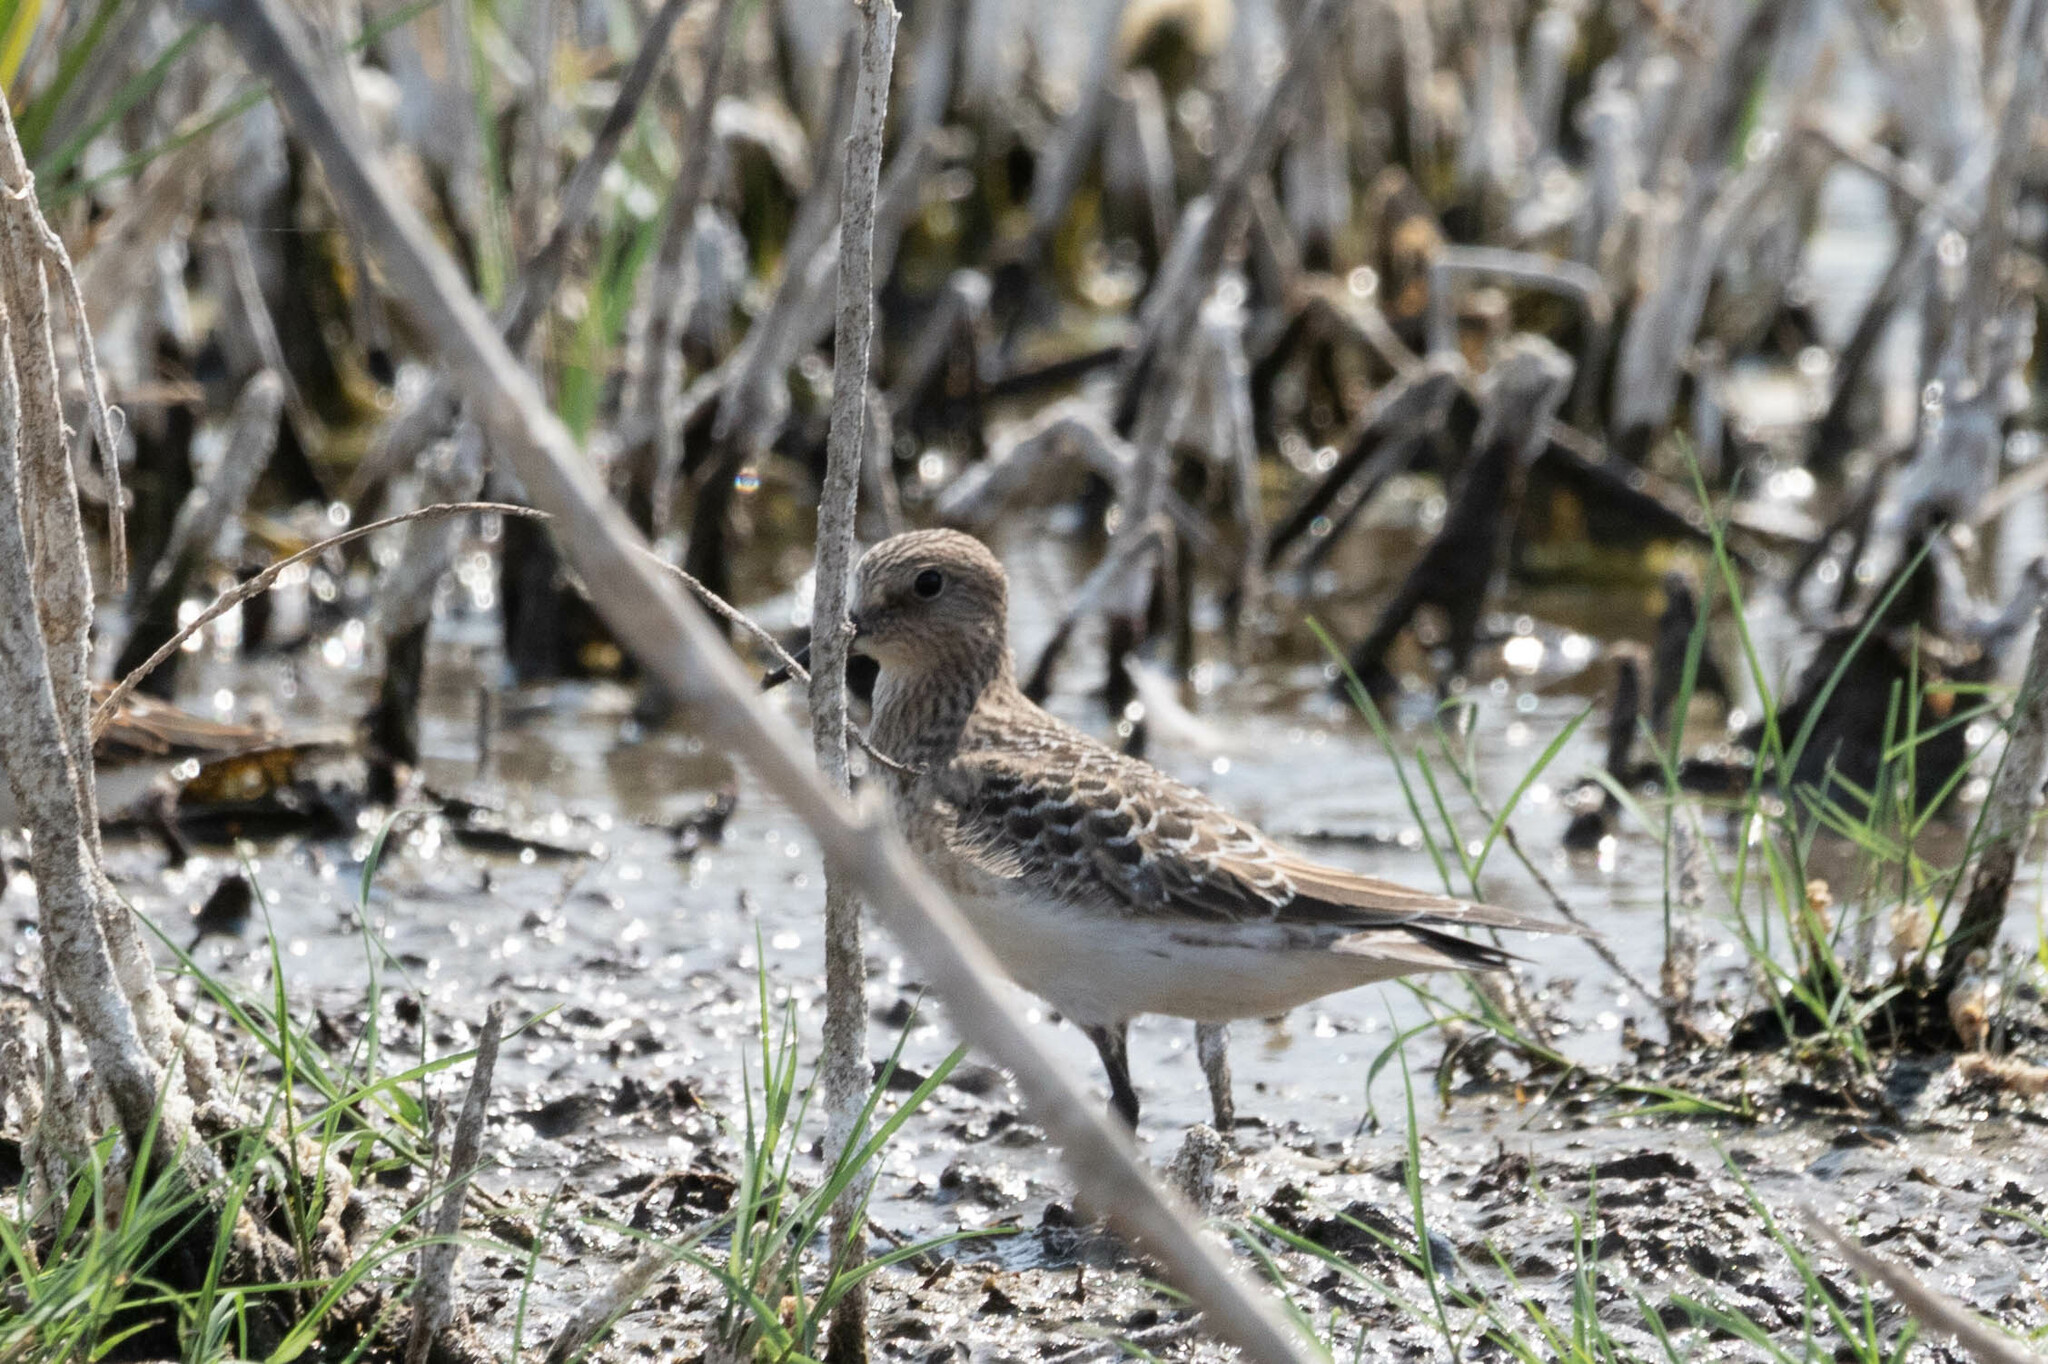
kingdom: Animalia
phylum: Chordata
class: Aves
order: Charadriiformes
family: Scolopacidae
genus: Calidris
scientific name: Calidris bairdii
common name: Baird's sandpiper
